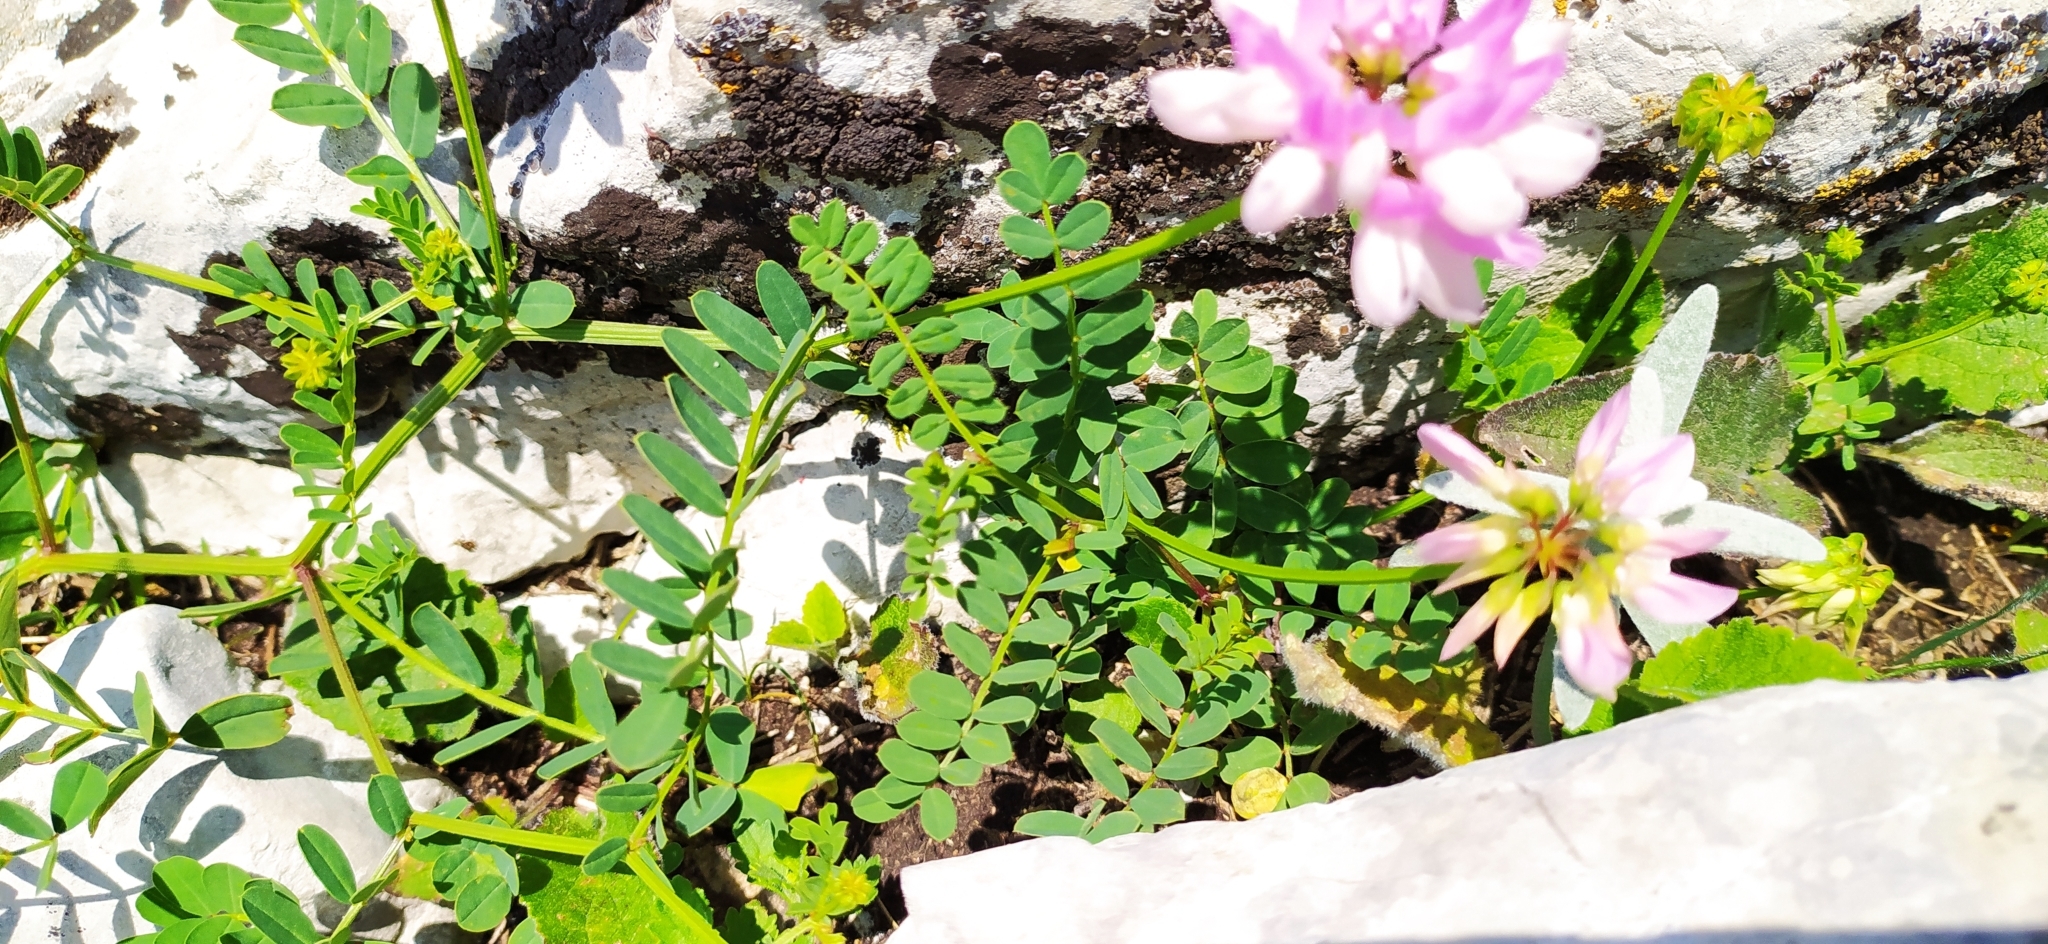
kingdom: Plantae
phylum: Tracheophyta
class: Magnoliopsida
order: Fabales
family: Fabaceae
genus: Coronilla
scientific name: Coronilla varia
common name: Crownvetch
